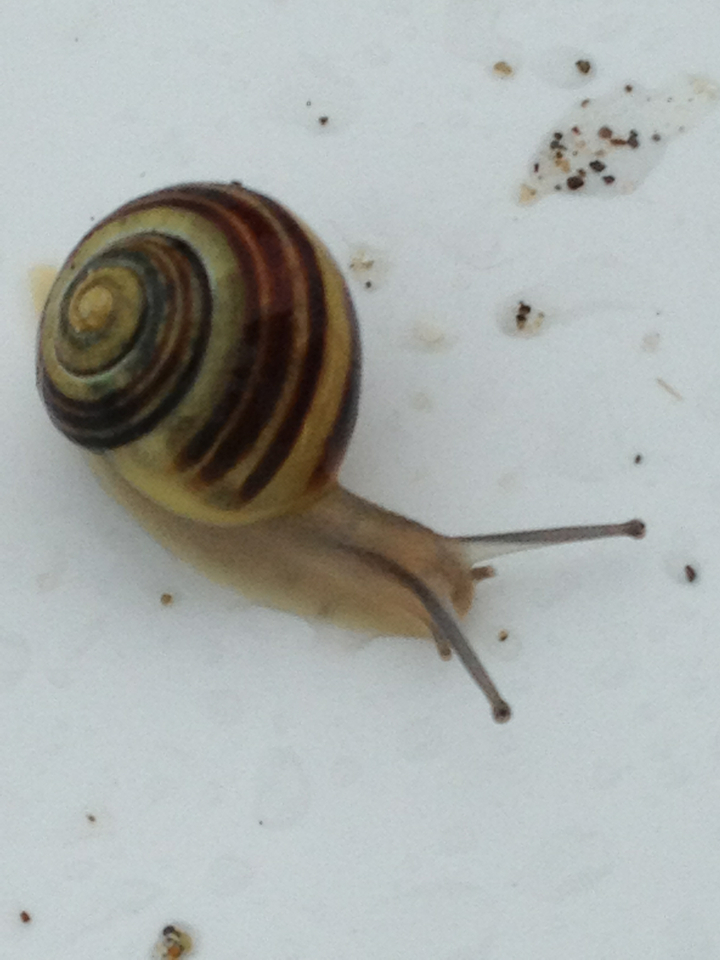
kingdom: Animalia
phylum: Mollusca
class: Gastropoda
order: Stylommatophora
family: Helicidae
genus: Cepaea
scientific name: Cepaea
